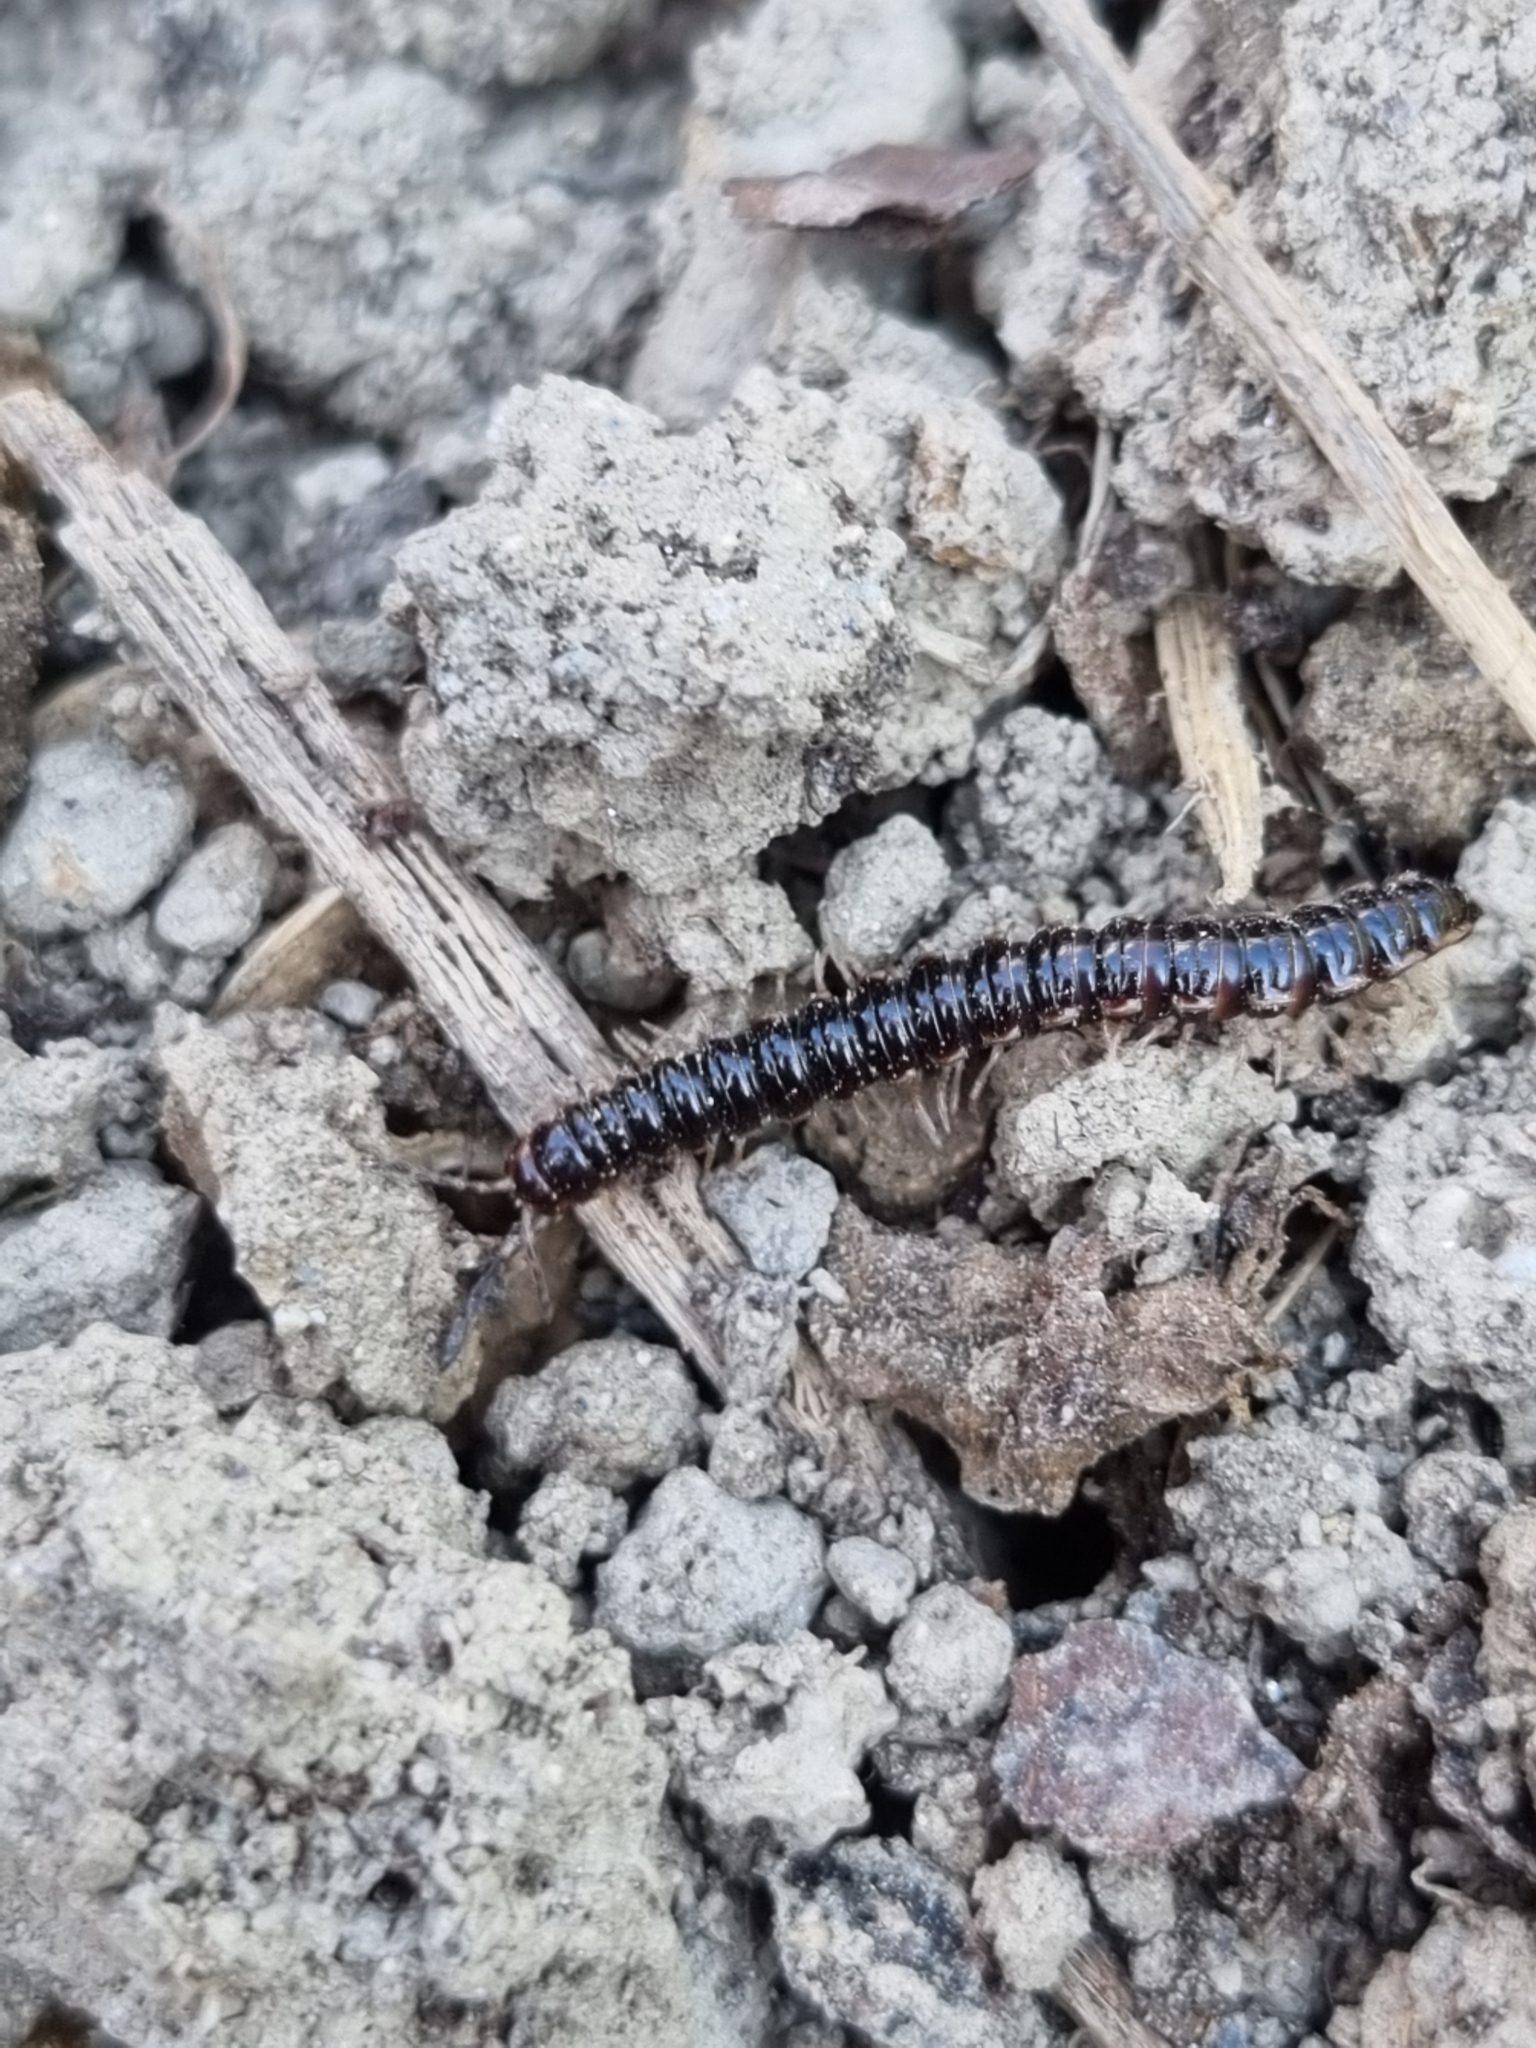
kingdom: Animalia
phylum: Arthropoda
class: Diplopoda
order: Polydesmida
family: Paradoxosomatidae
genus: Oxidus
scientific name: Oxidus gracilis
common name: Greenhouse millipede
